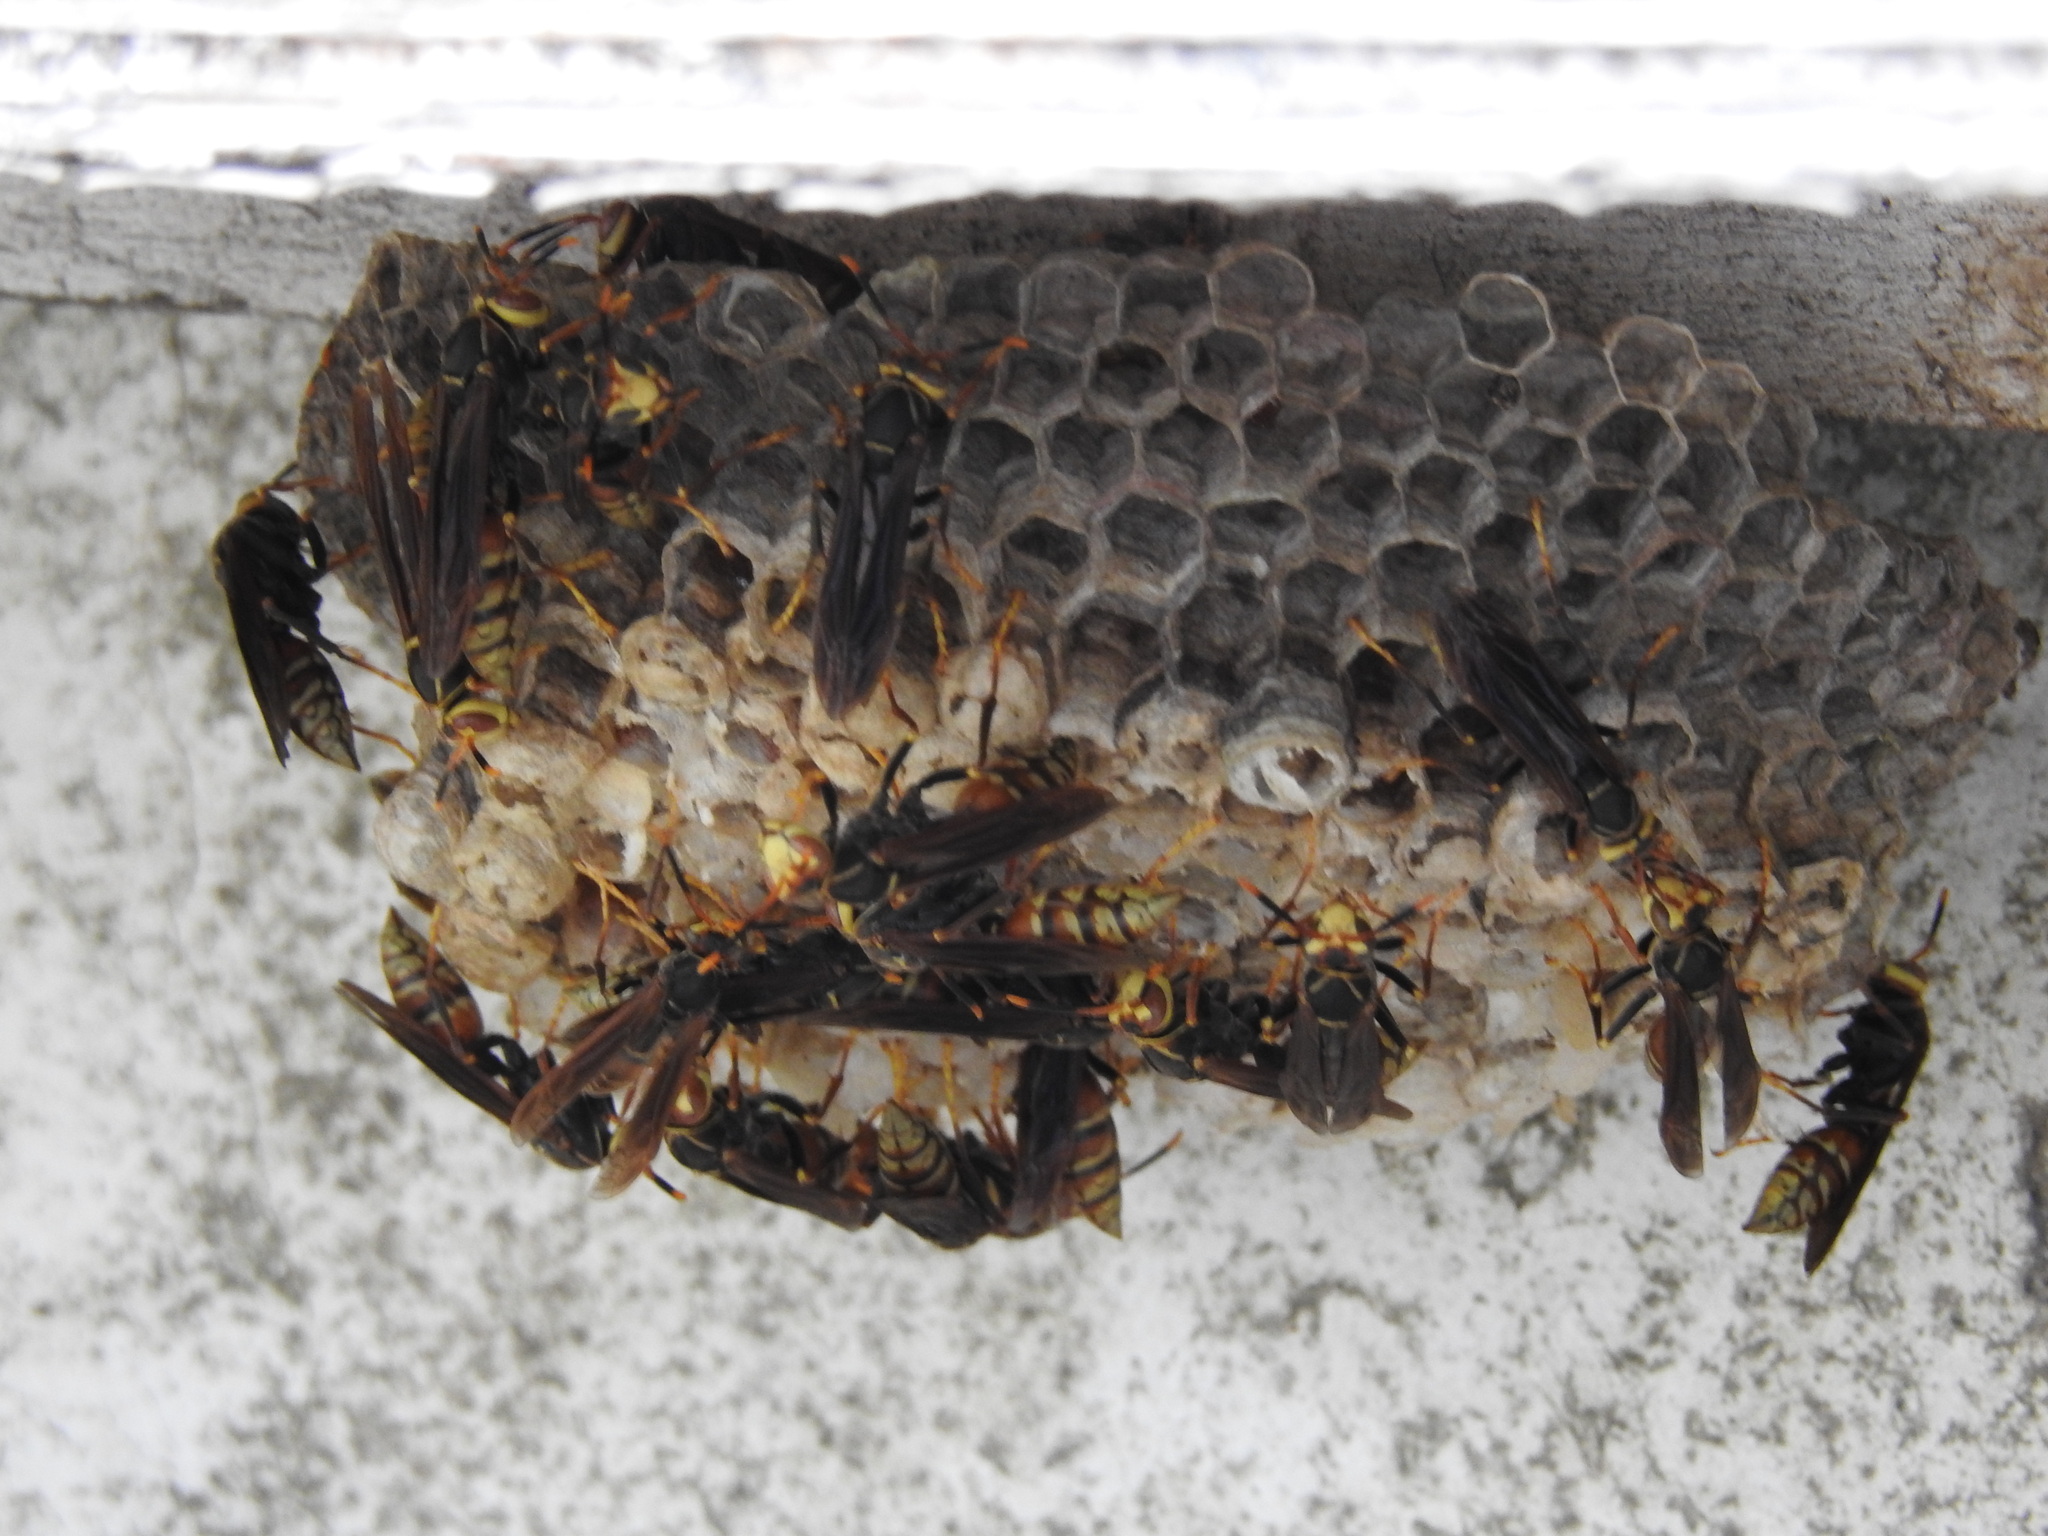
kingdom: Animalia
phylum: Arthropoda
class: Insecta
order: Hymenoptera
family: Eumenidae
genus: Polistes
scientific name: Polistes buyssoni
